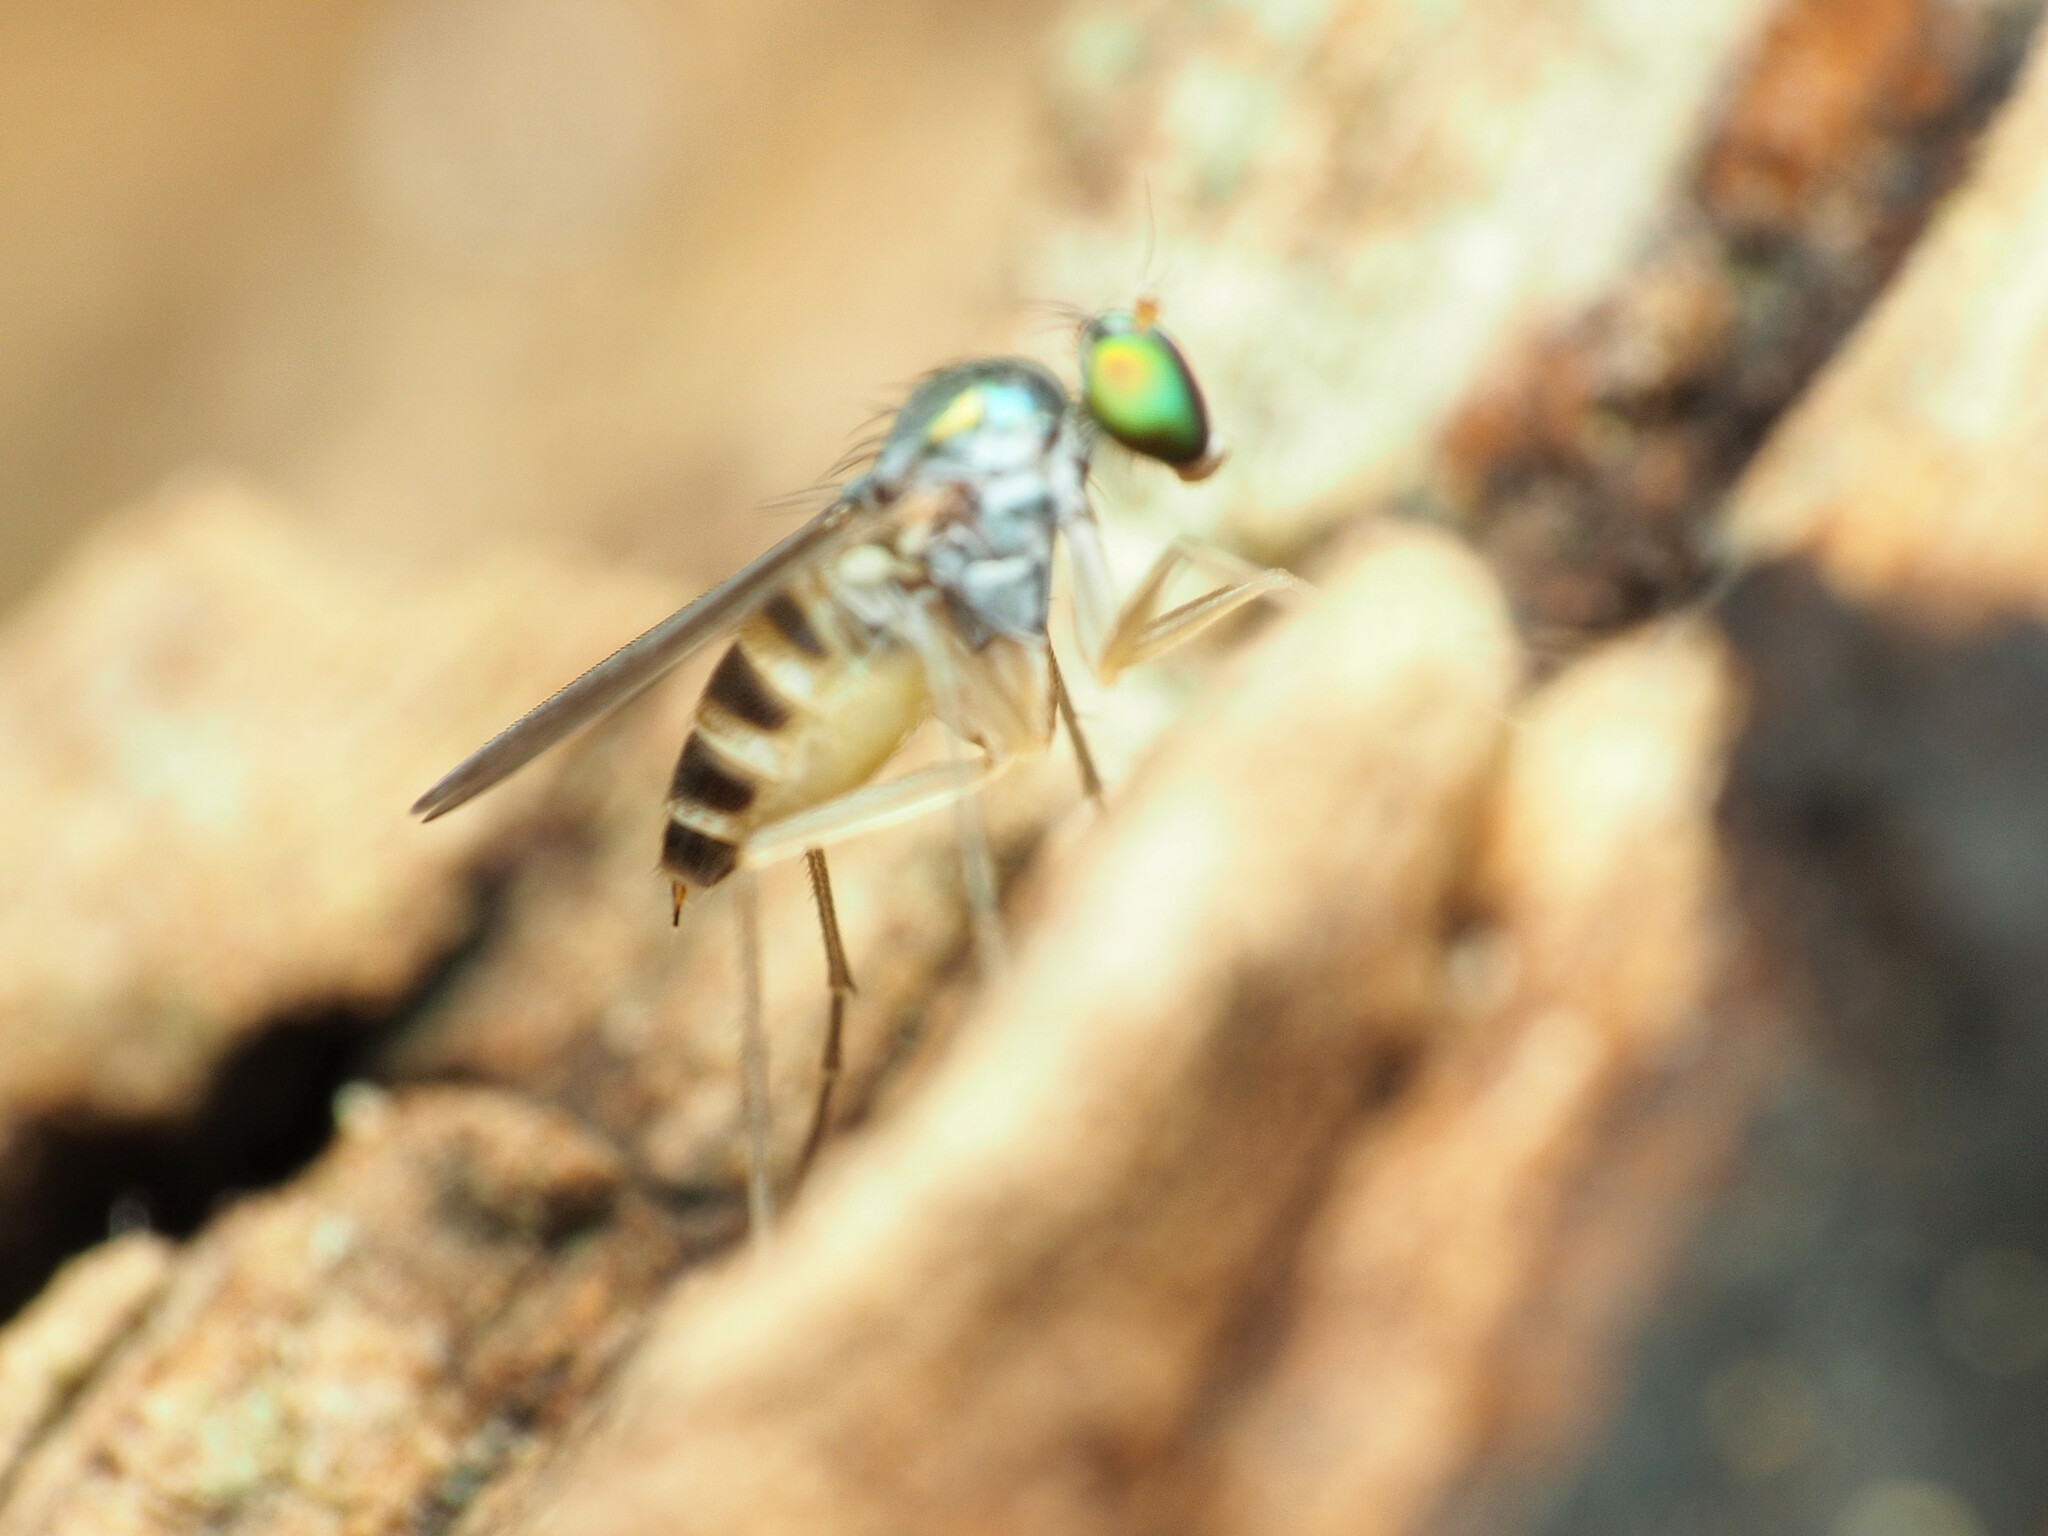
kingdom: Animalia
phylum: Arthropoda
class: Insecta
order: Diptera
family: Dolichopodidae
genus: Neurigona
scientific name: Neurigona deformis
